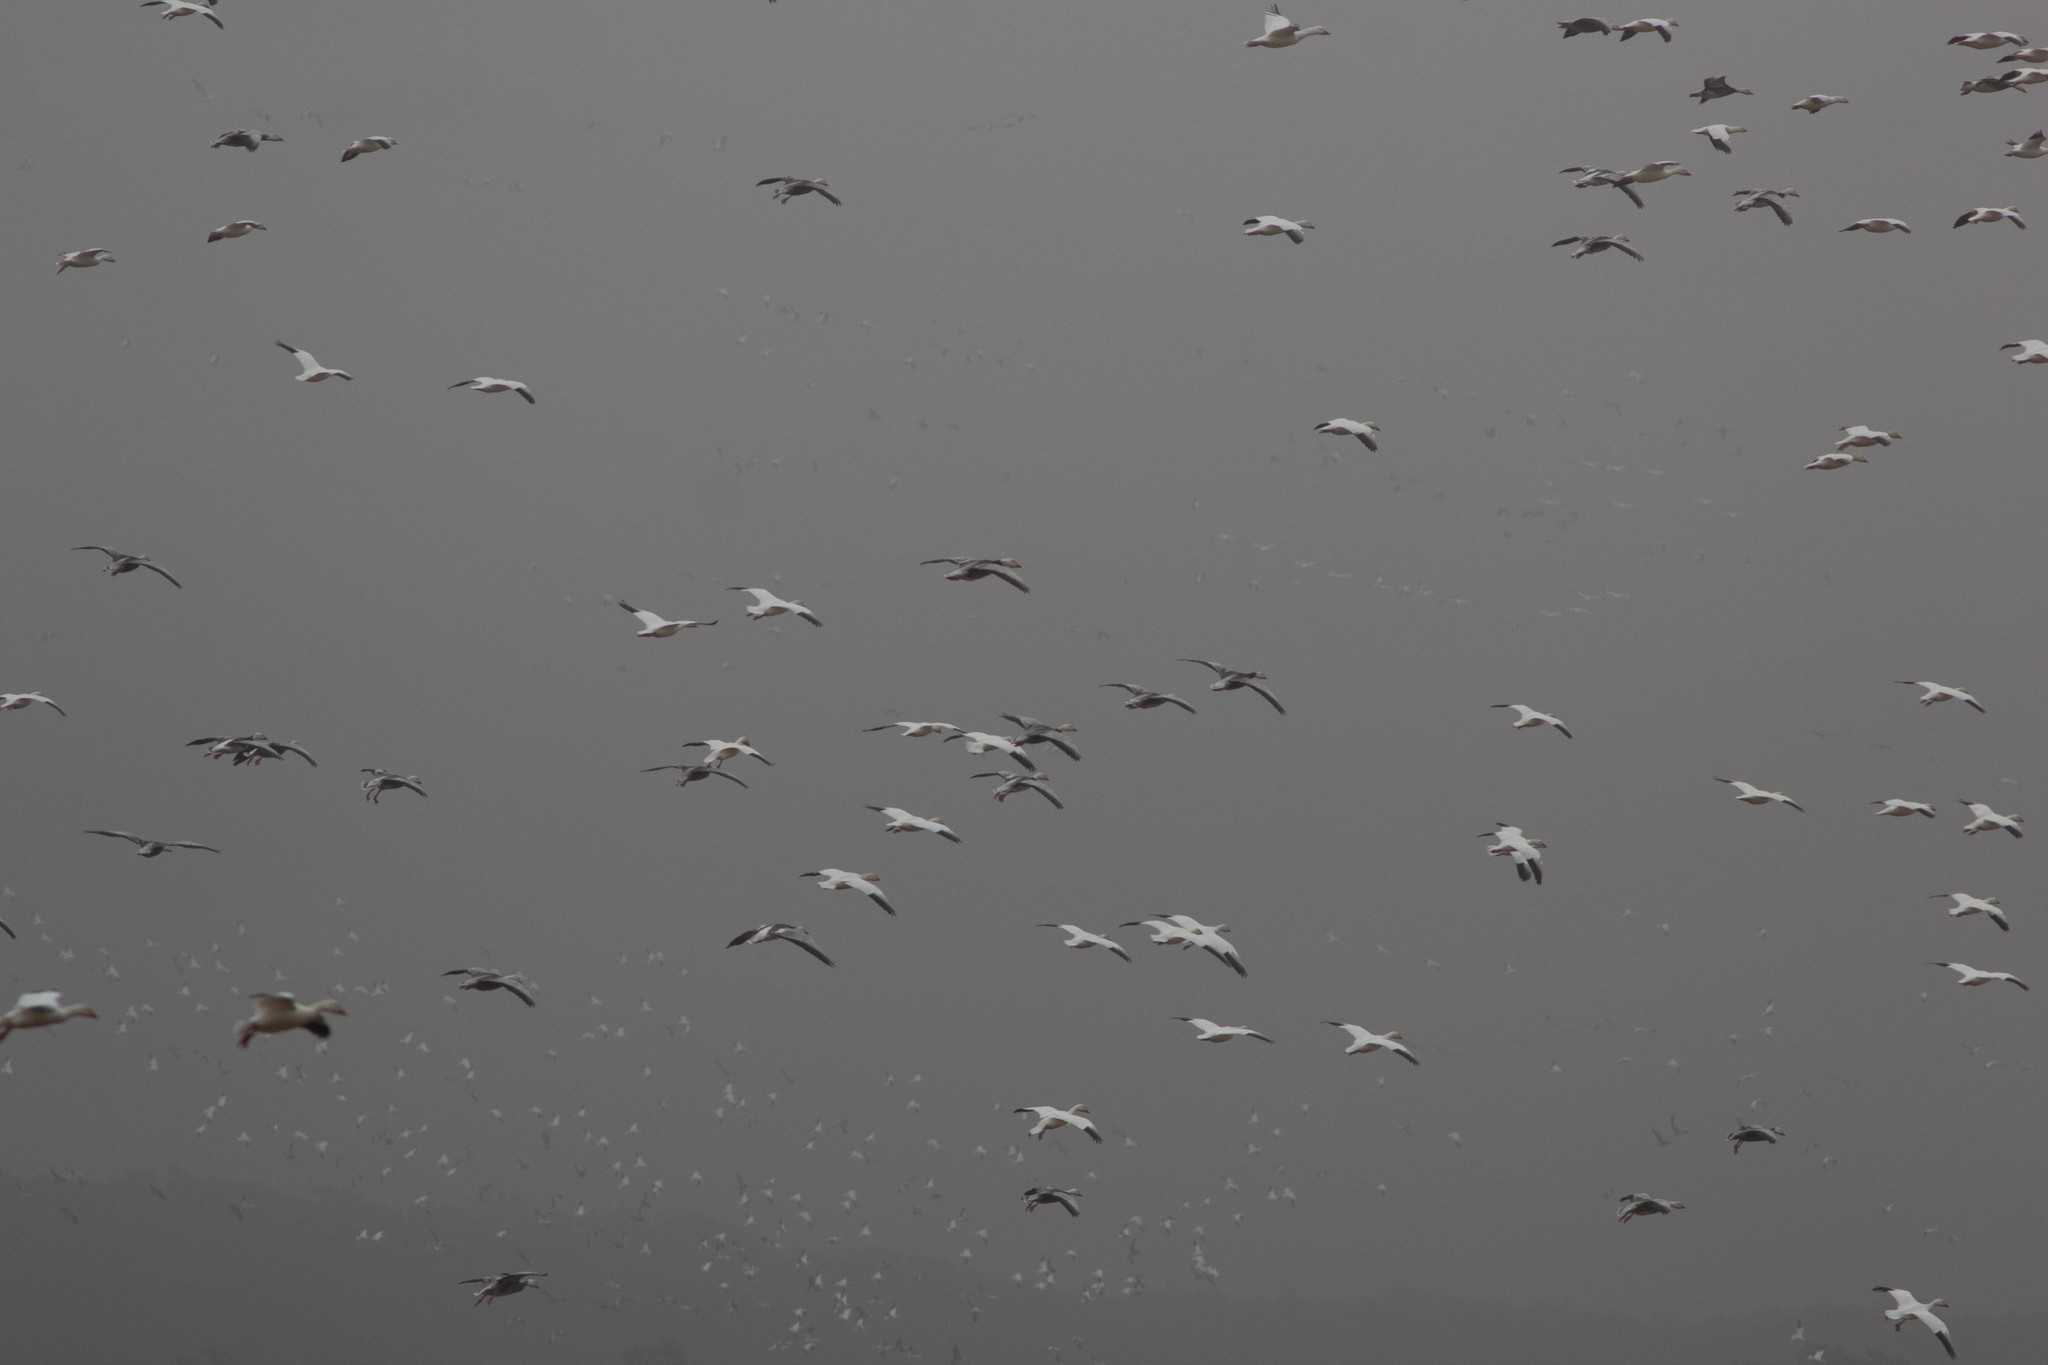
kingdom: Animalia
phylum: Chordata
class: Aves
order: Anseriformes
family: Anatidae
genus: Anser
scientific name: Anser caerulescens
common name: Snow goose
